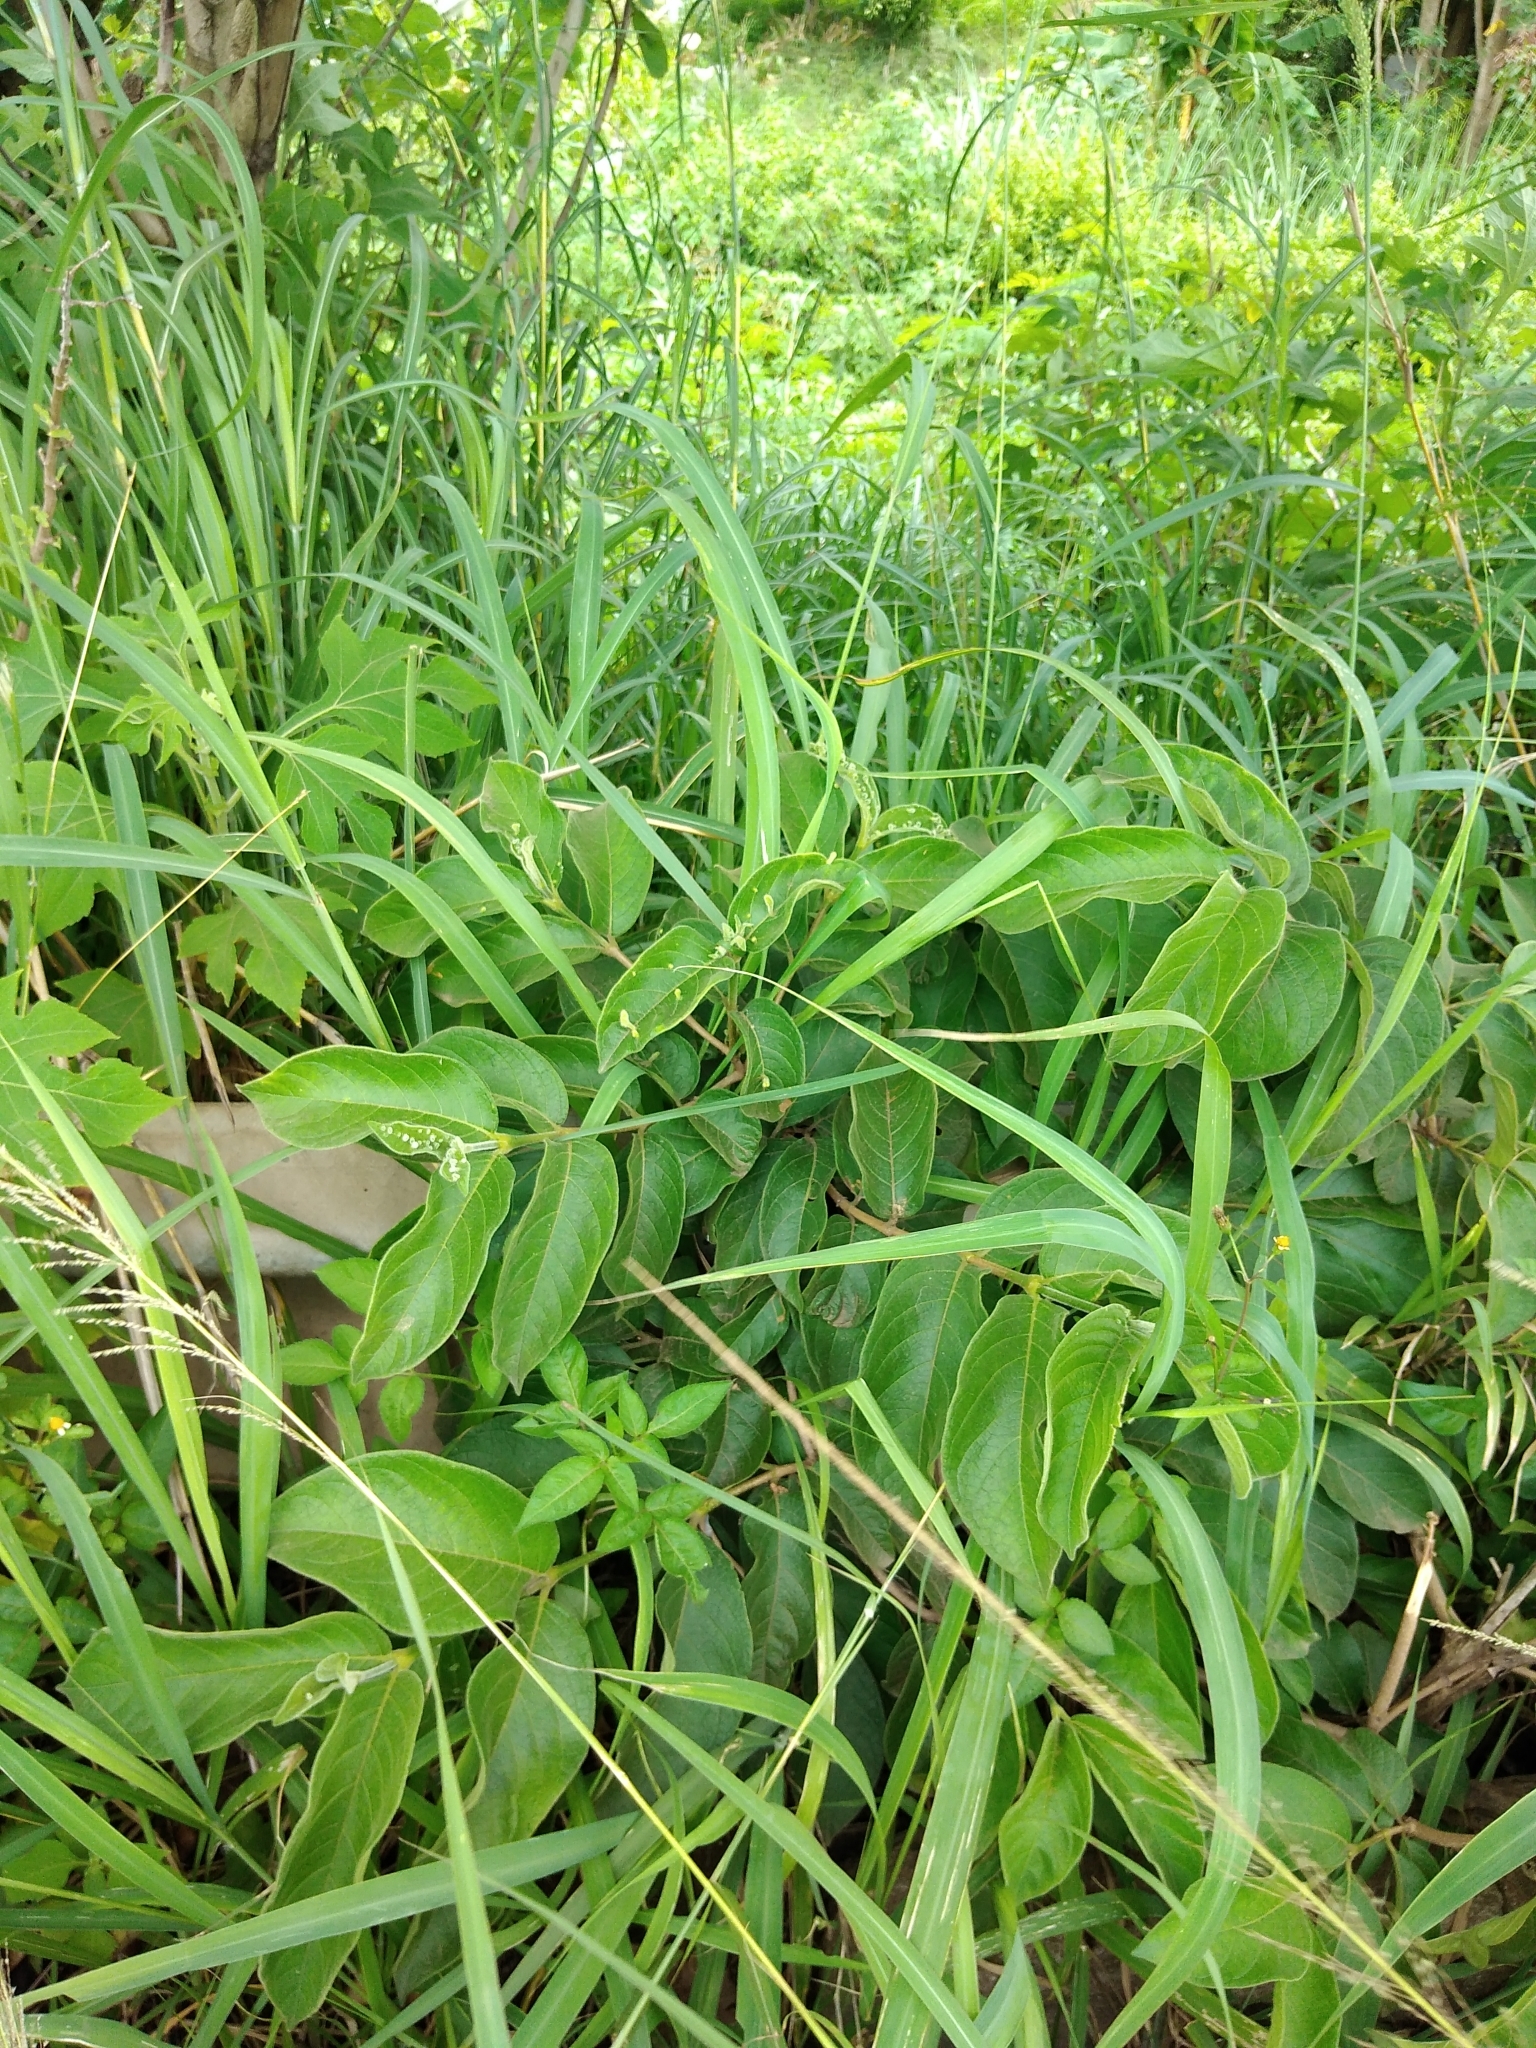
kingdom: Plantae
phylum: Tracheophyta
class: Magnoliopsida
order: Gentianales
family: Rubiaceae
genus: Vangueria
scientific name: Vangueria infausta
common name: Medlar
